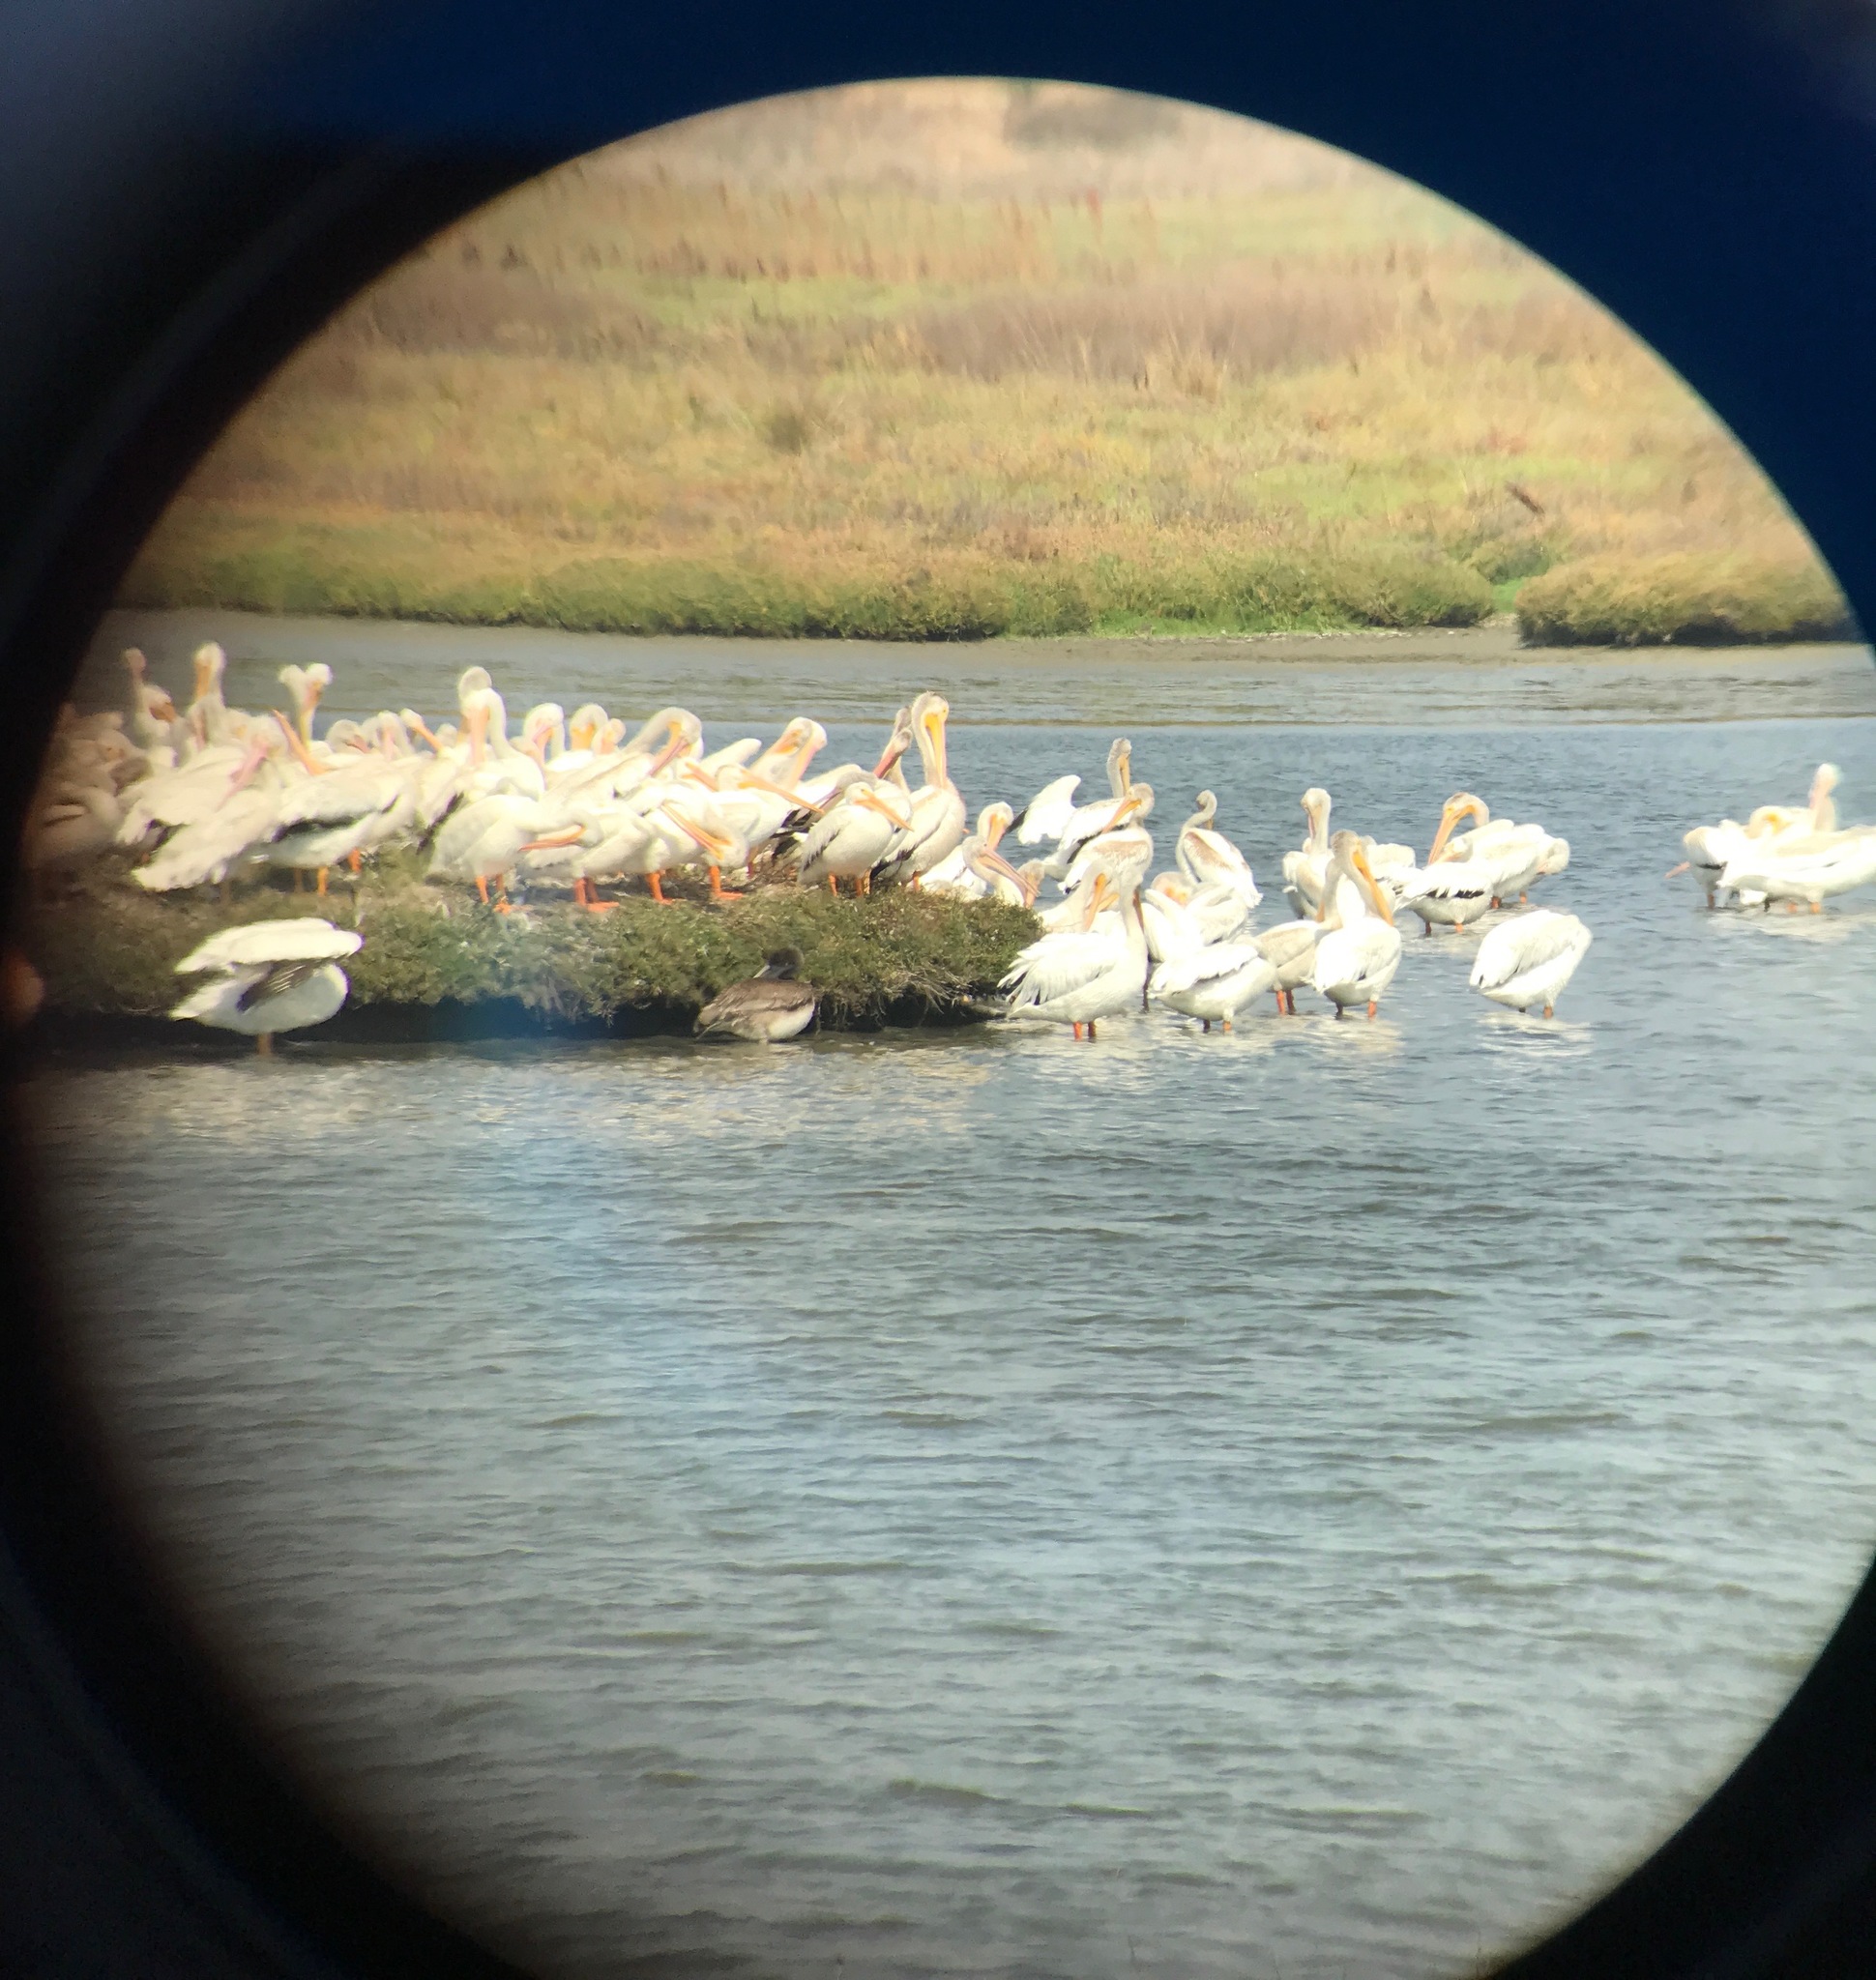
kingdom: Animalia
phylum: Chordata
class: Aves
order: Pelecaniformes
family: Pelecanidae
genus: Pelecanus
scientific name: Pelecanus erythrorhynchos
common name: American white pelican
